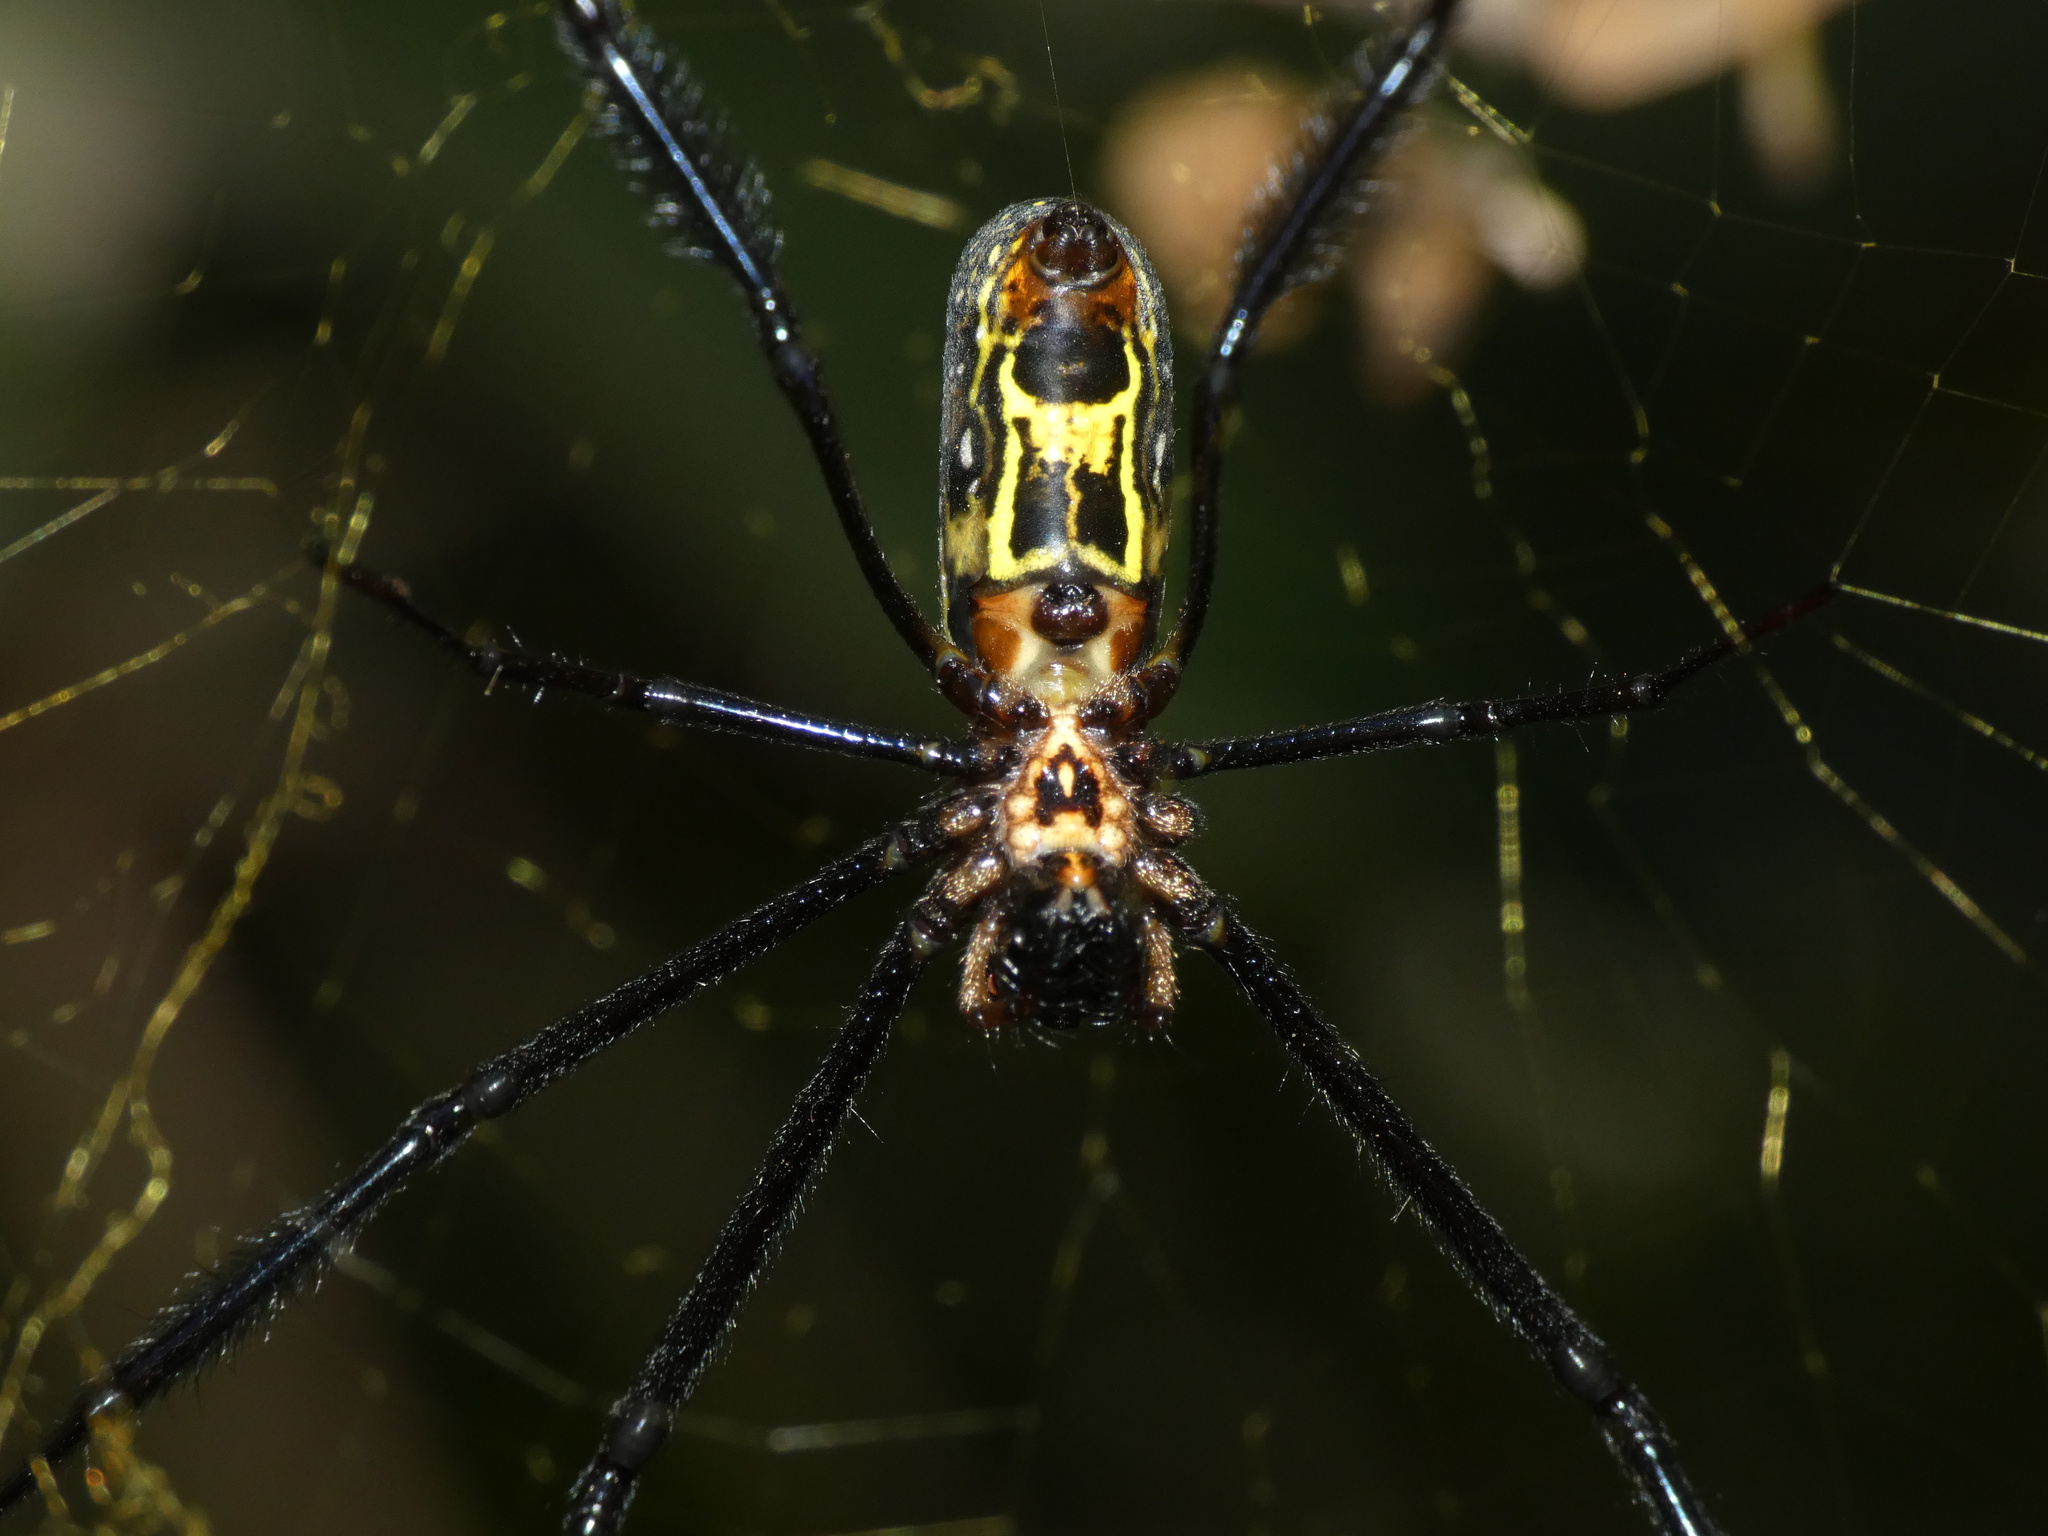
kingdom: Animalia
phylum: Arthropoda
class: Arachnida
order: Araneae
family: Araneidae
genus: Trichonephila
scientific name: Trichonephila fenestrata
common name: Hairy golden orb weaver
